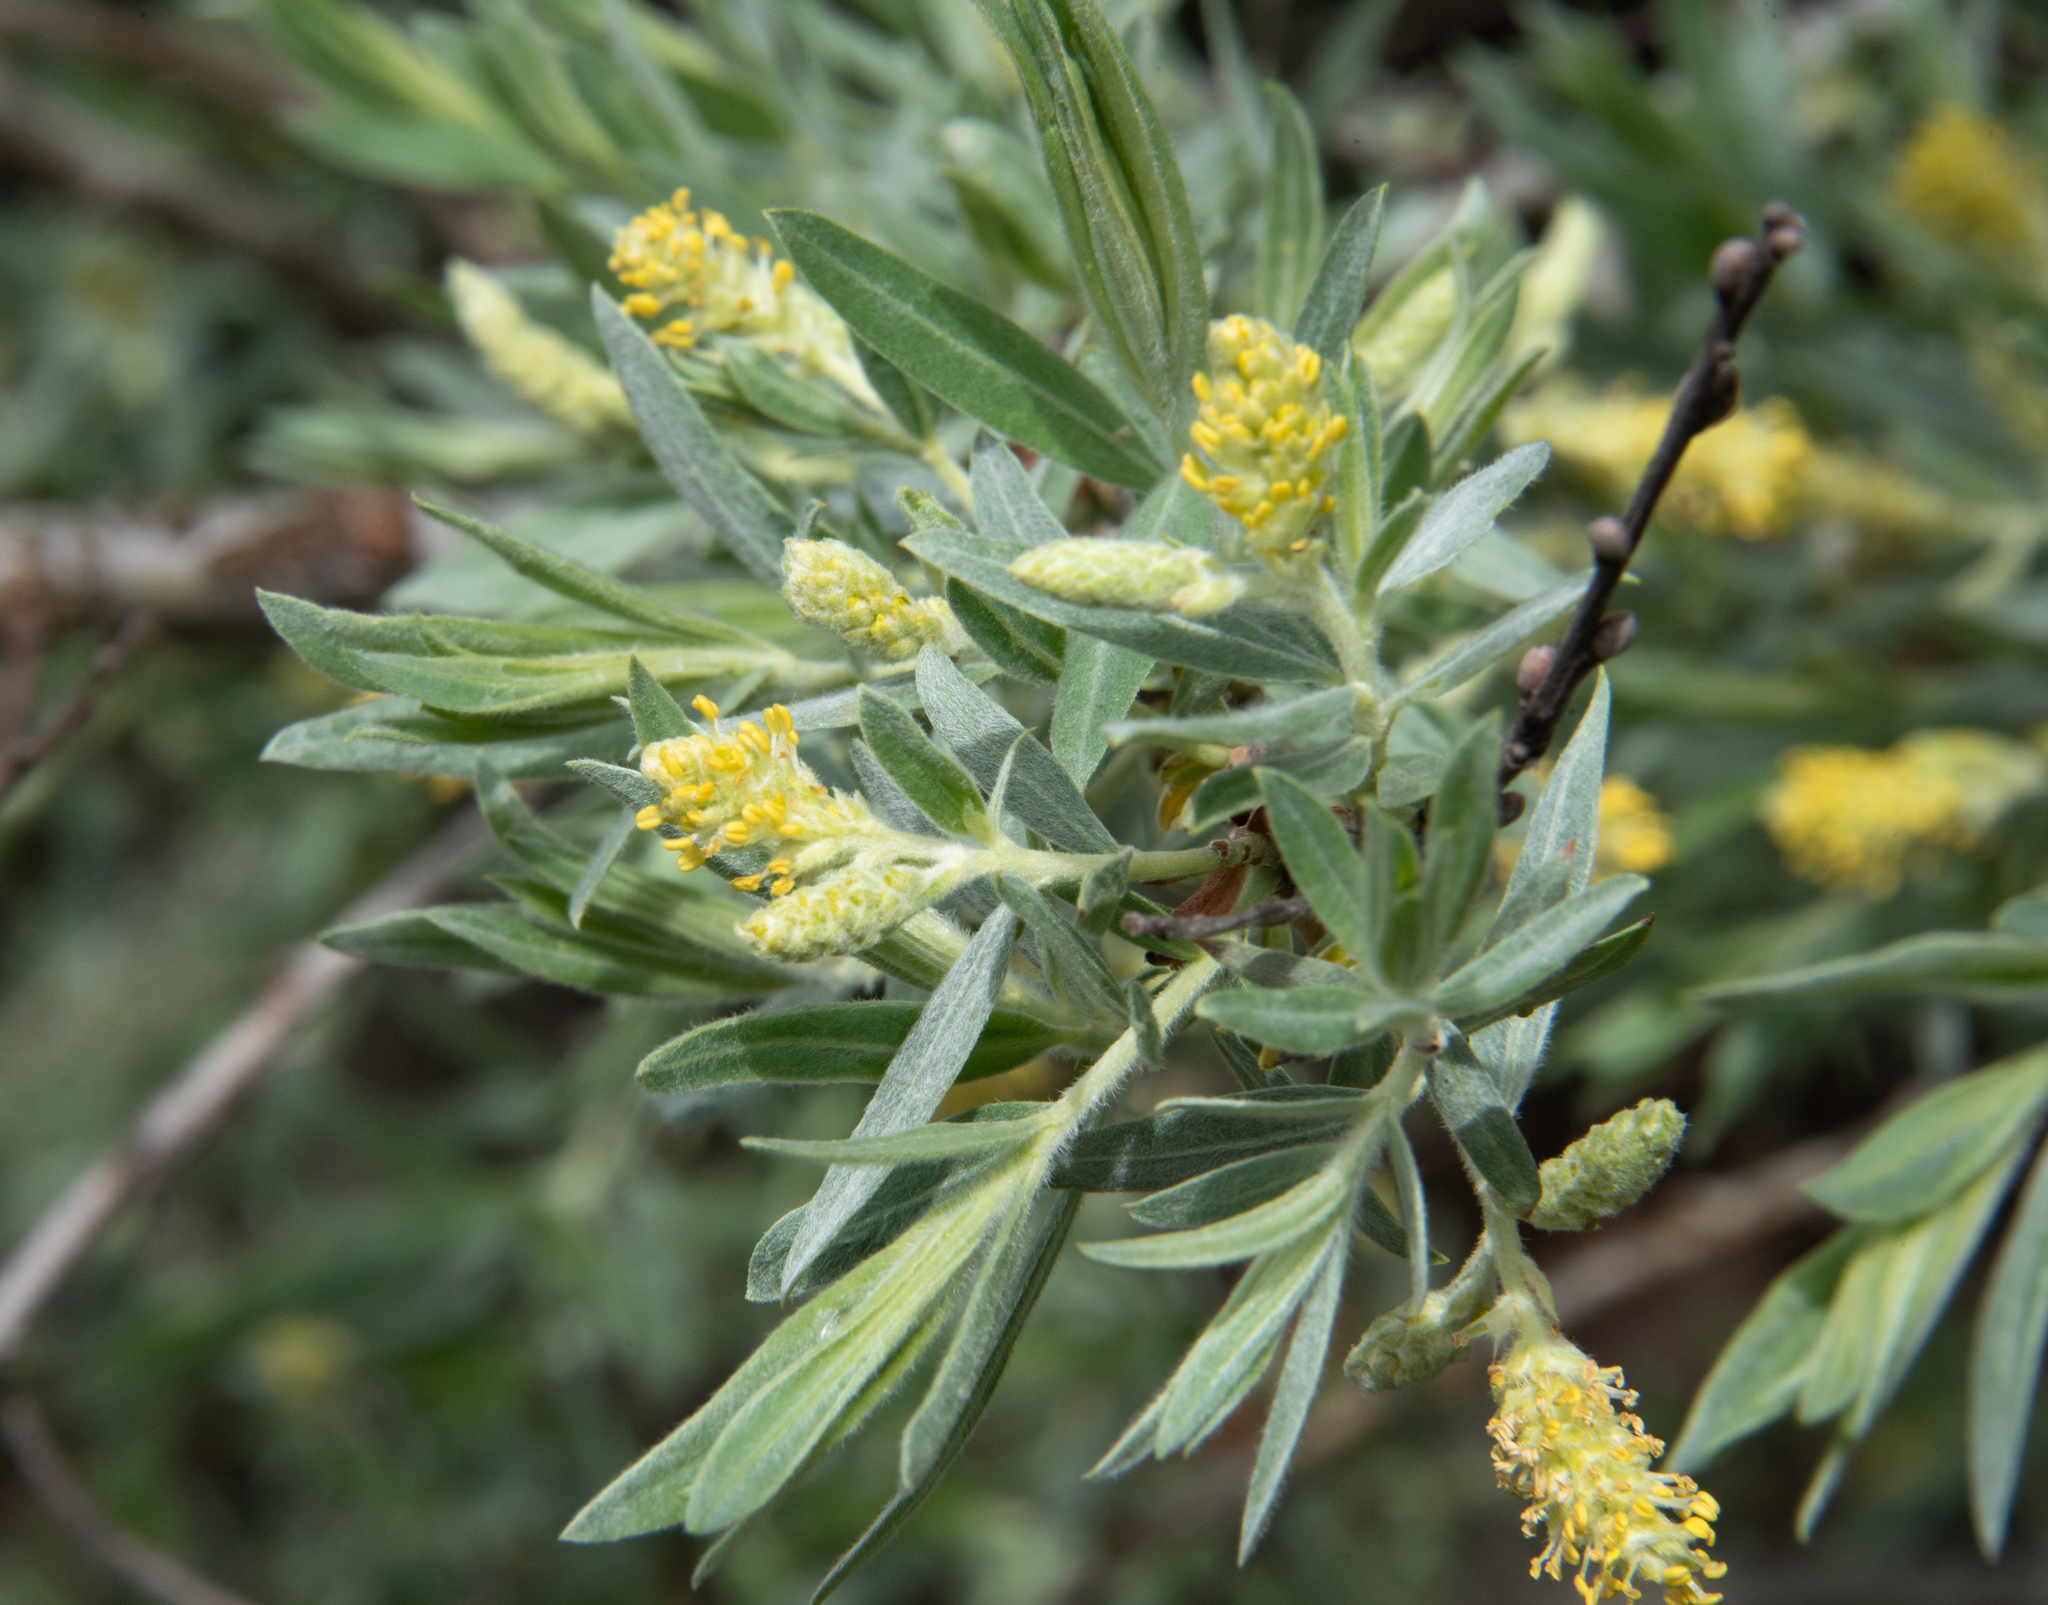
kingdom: Plantae
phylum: Tracheophyta
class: Magnoliopsida
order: Malpighiales
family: Salicaceae
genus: Salix
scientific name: Salix exigua
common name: Coyote willow
